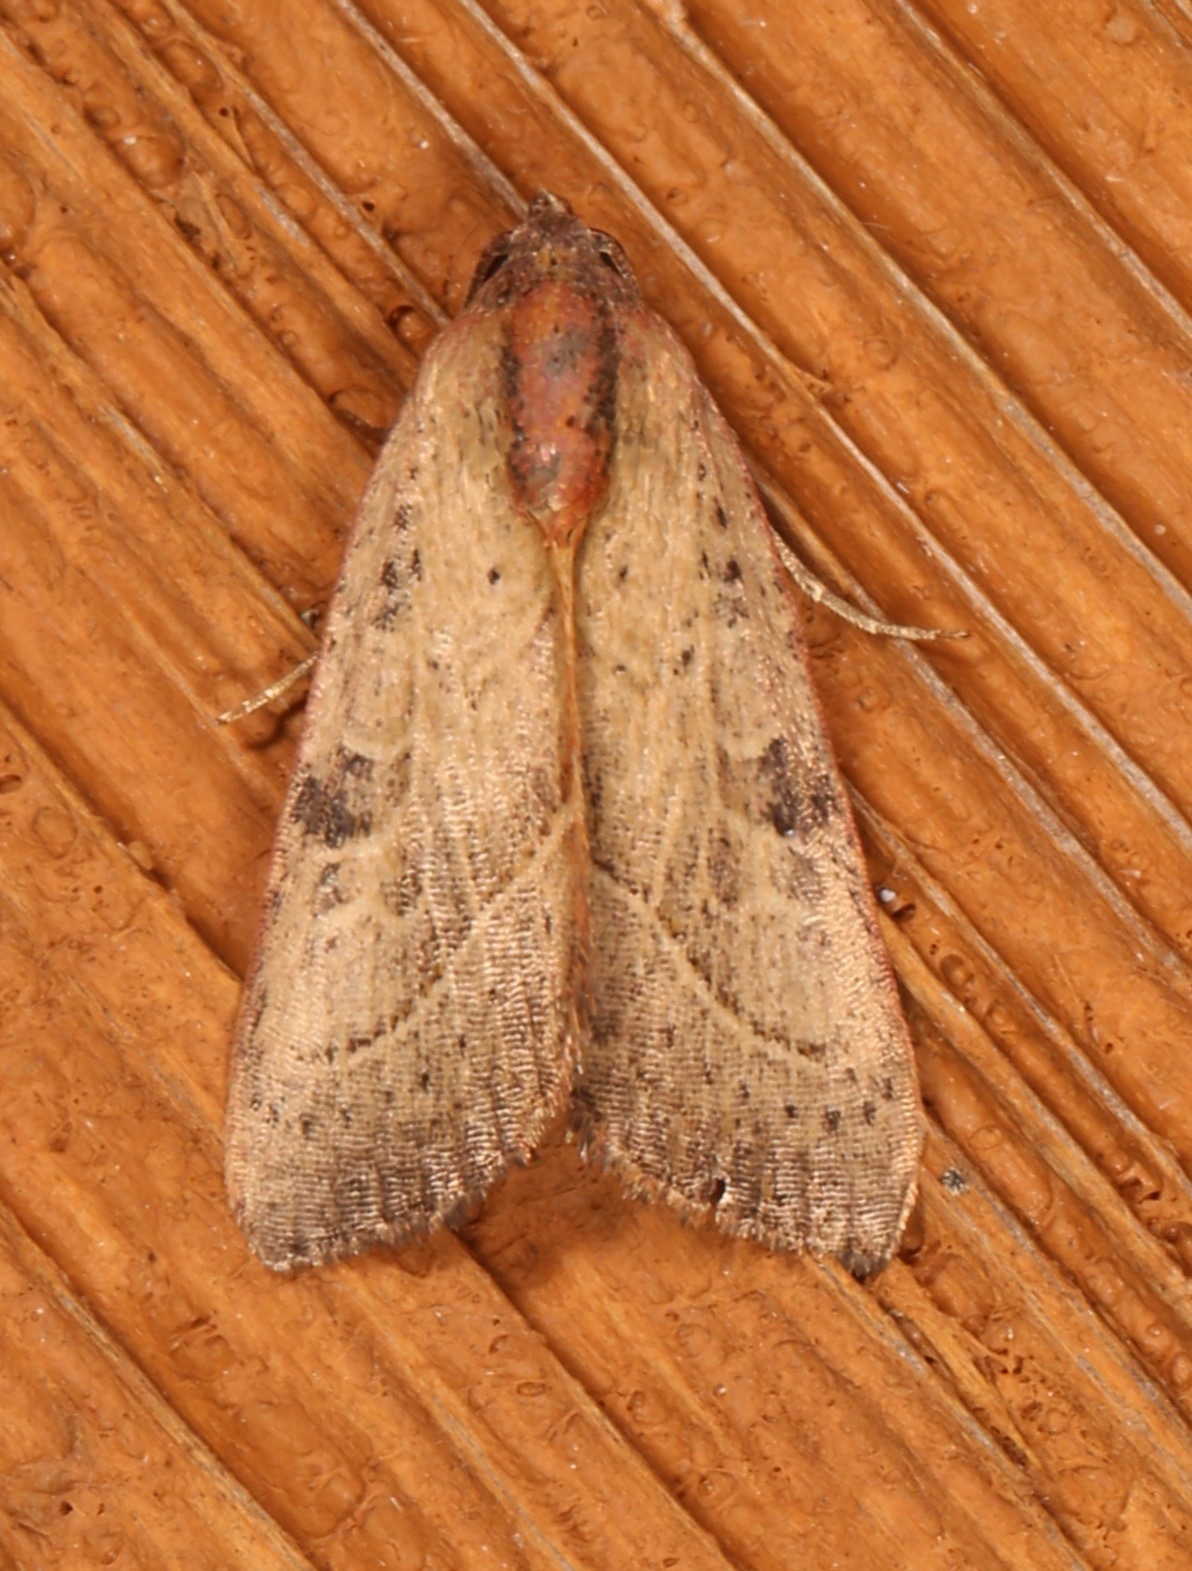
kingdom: Animalia
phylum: Arthropoda
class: Insecta
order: Lepidoptera
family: Noctuidae
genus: Galgula
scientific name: Galgula partita
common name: Wedgeling
